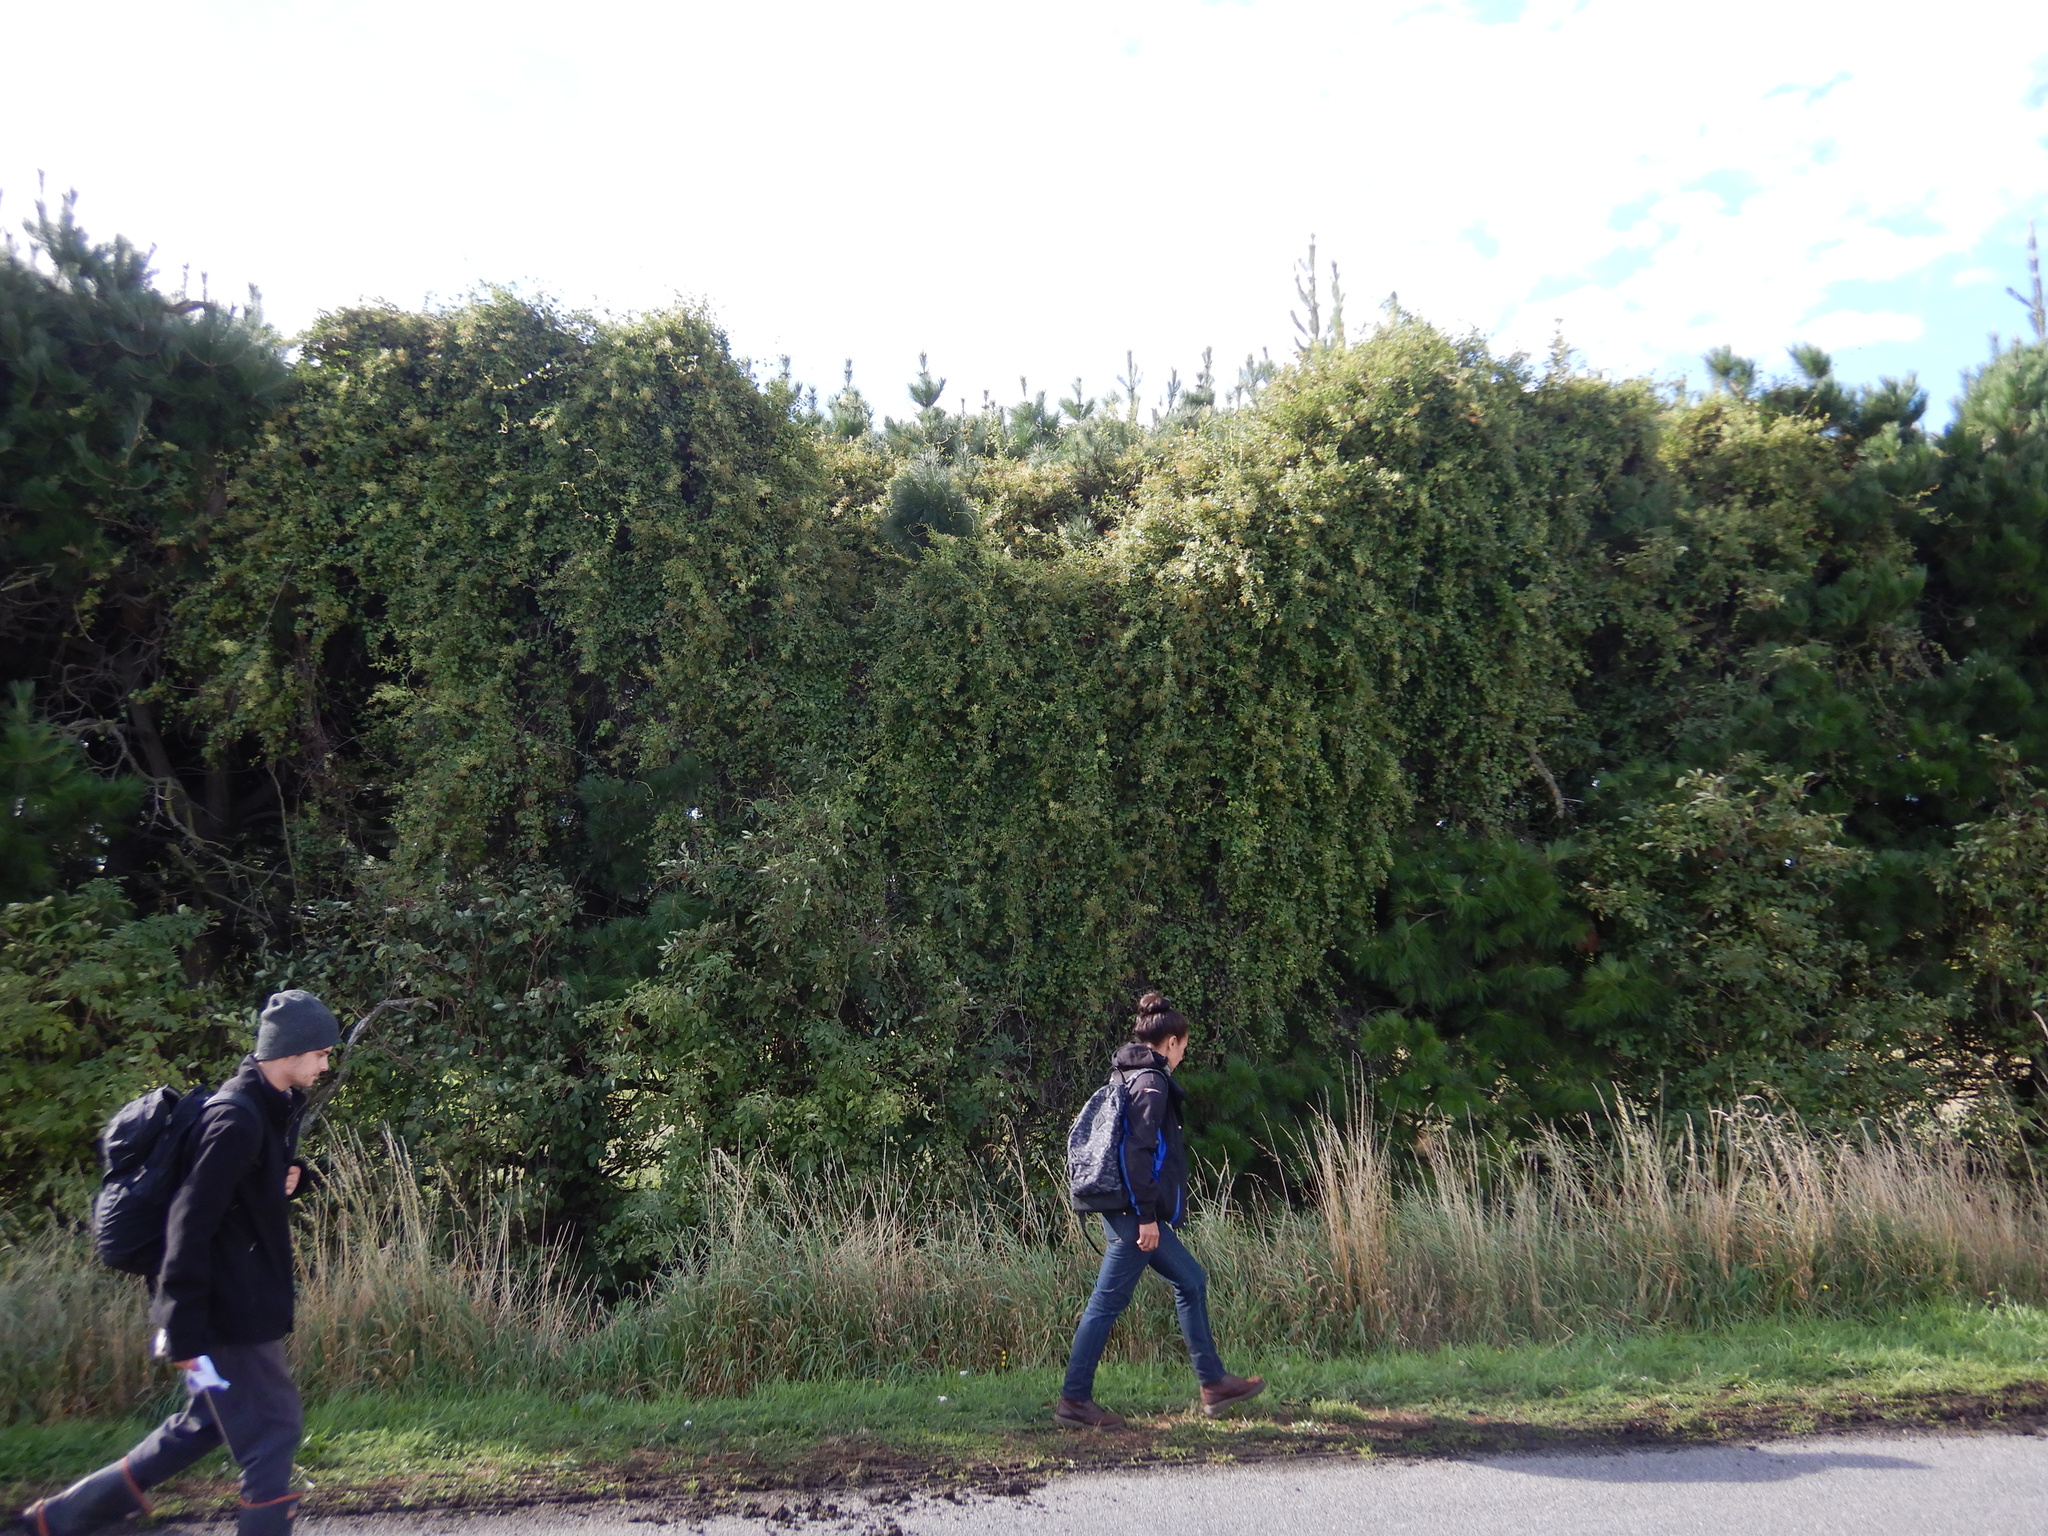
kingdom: Plantae
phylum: Tracheophyta
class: Magnoliopsida
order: Caryophyllales
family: Polygonaceae
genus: Muehlenbeckia
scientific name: Muehlenbeckia australis
